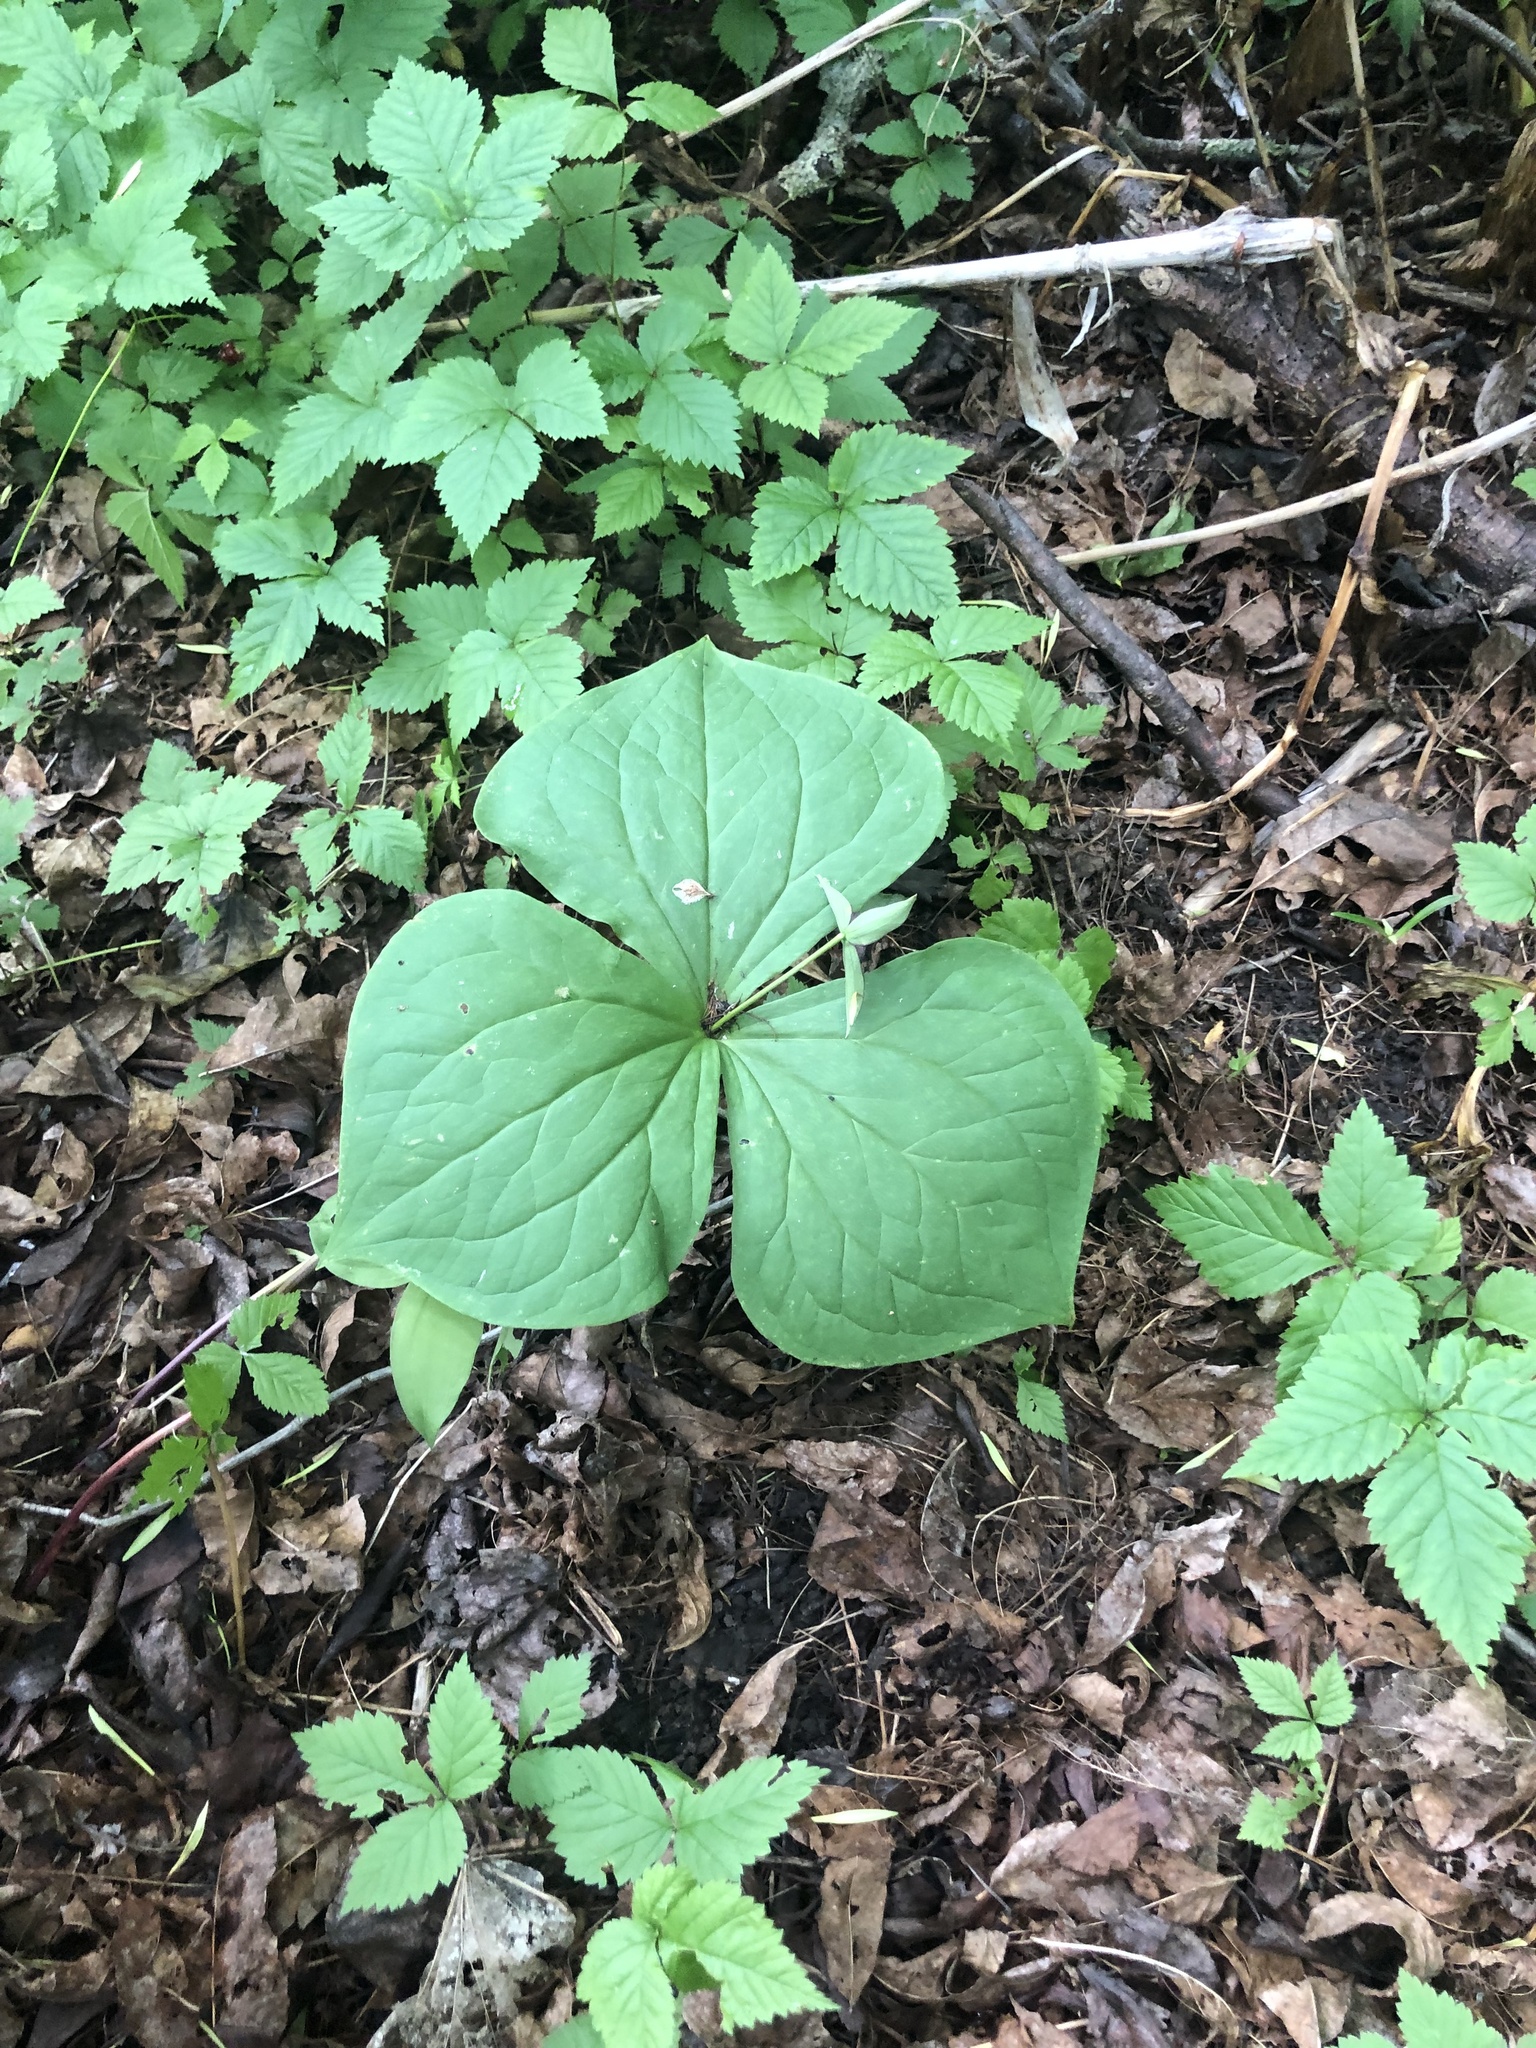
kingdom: Plantae
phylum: Tracheophyta
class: Liliopsida
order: Liliales
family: Melanthiaceae
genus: Trillium
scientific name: Trillium erectum
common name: Purple trillium
